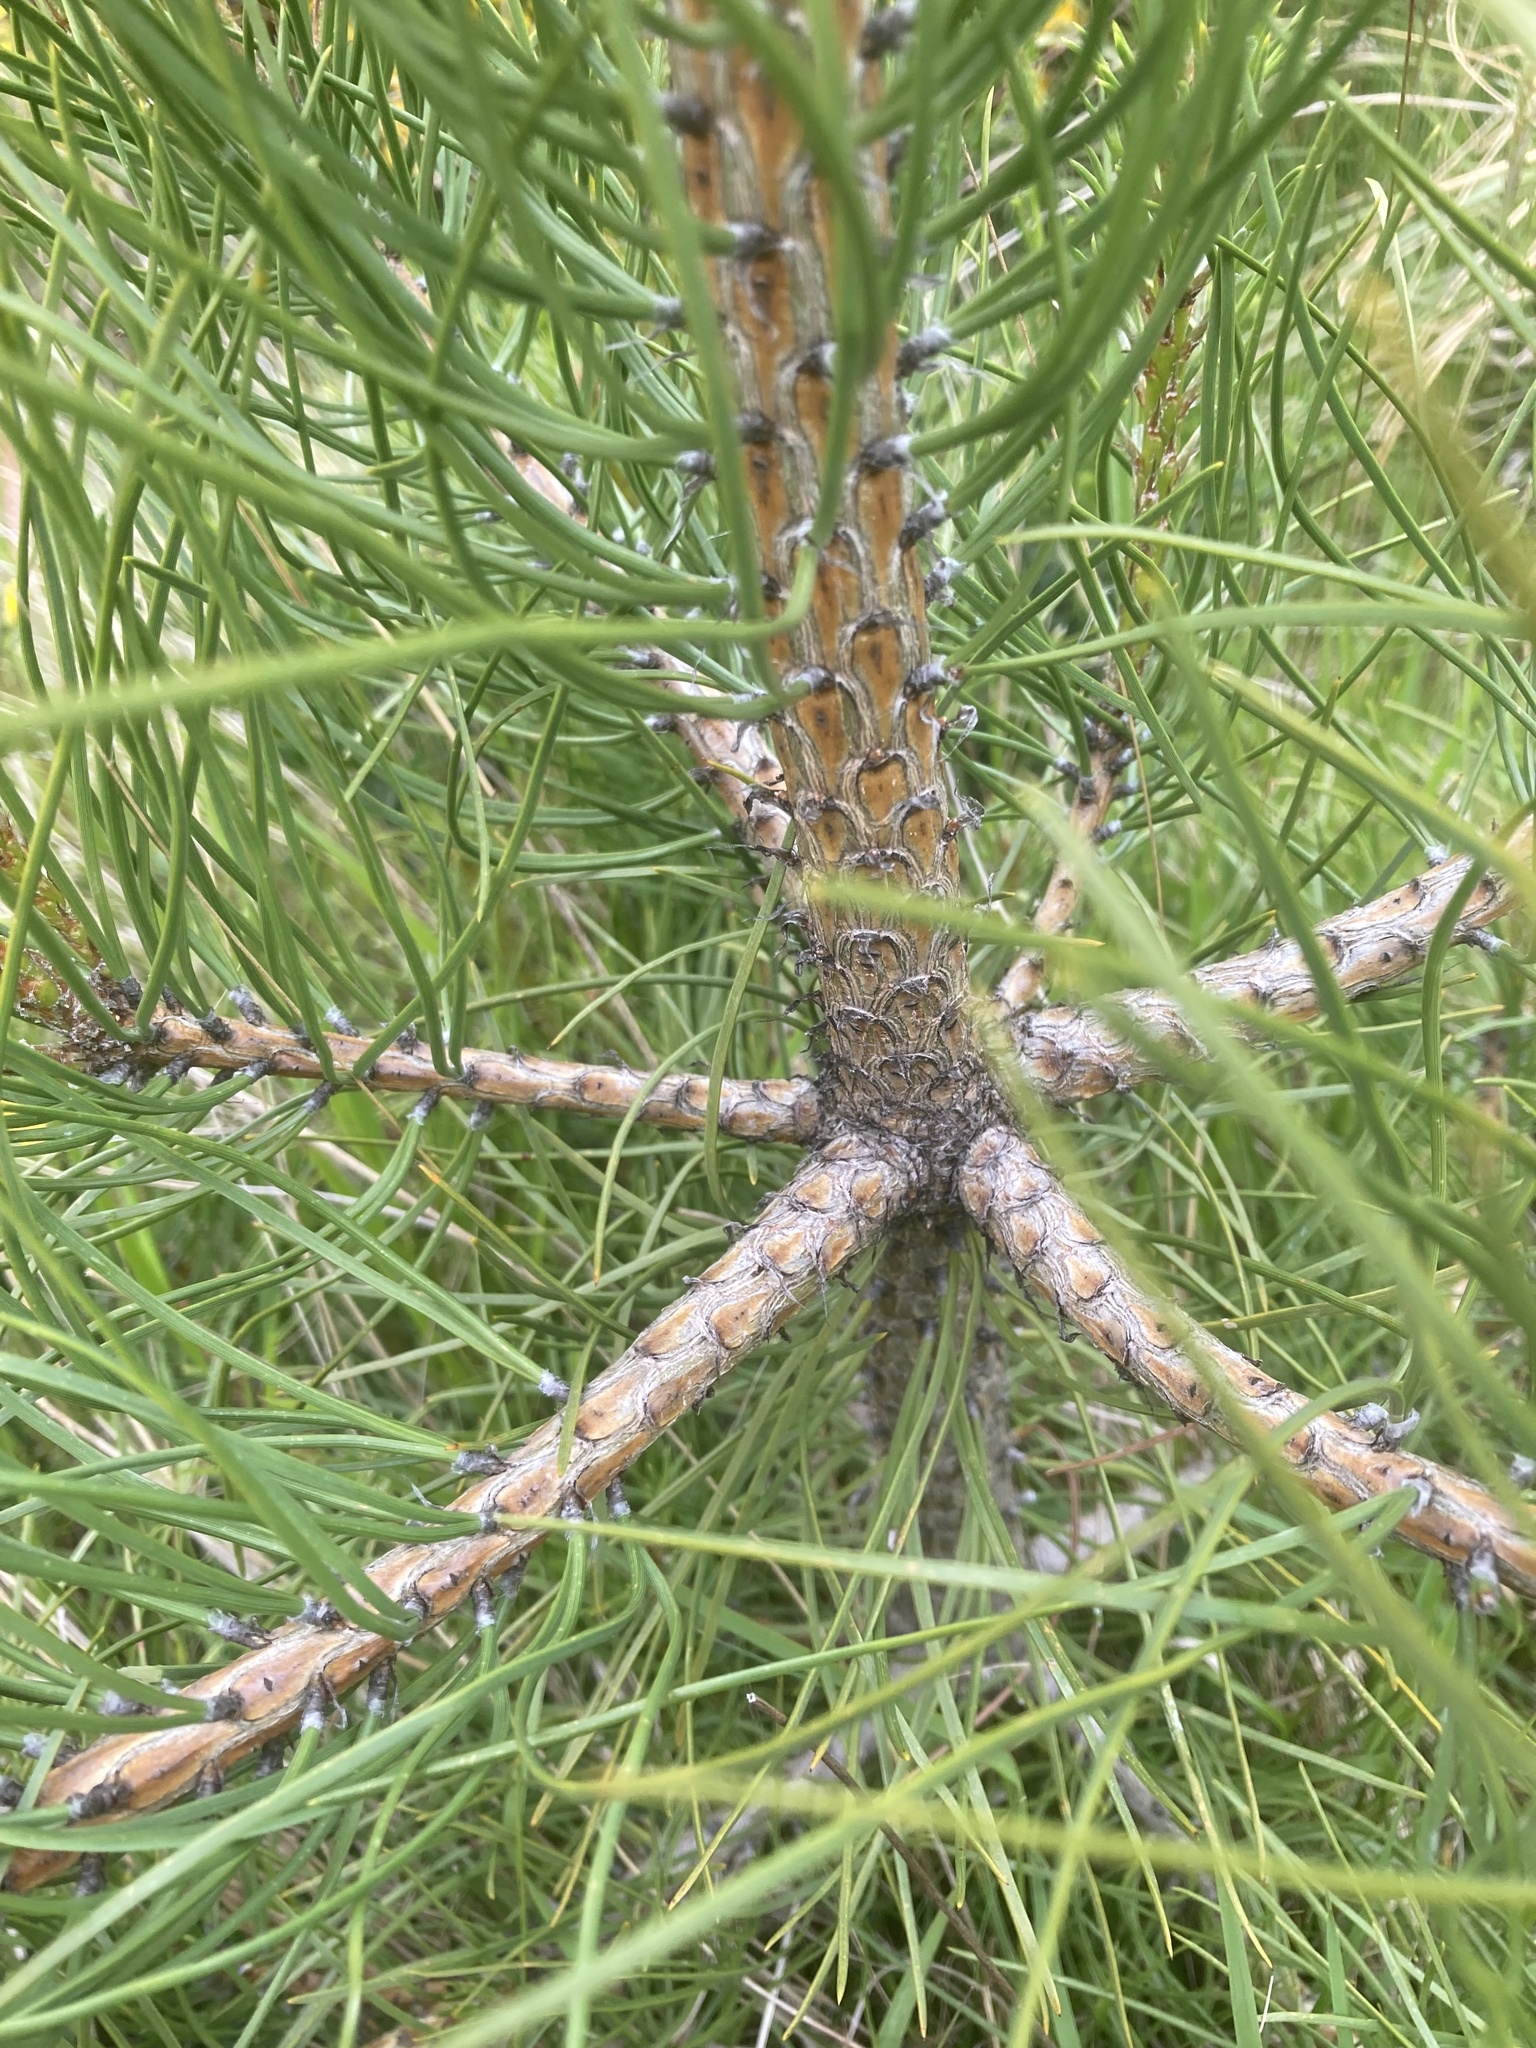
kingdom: Plantae
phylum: Tracheophyta
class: Pinopsida
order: Pinales
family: Pinaceae
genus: Pinus
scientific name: Pinus nigra
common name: Austrian pine
